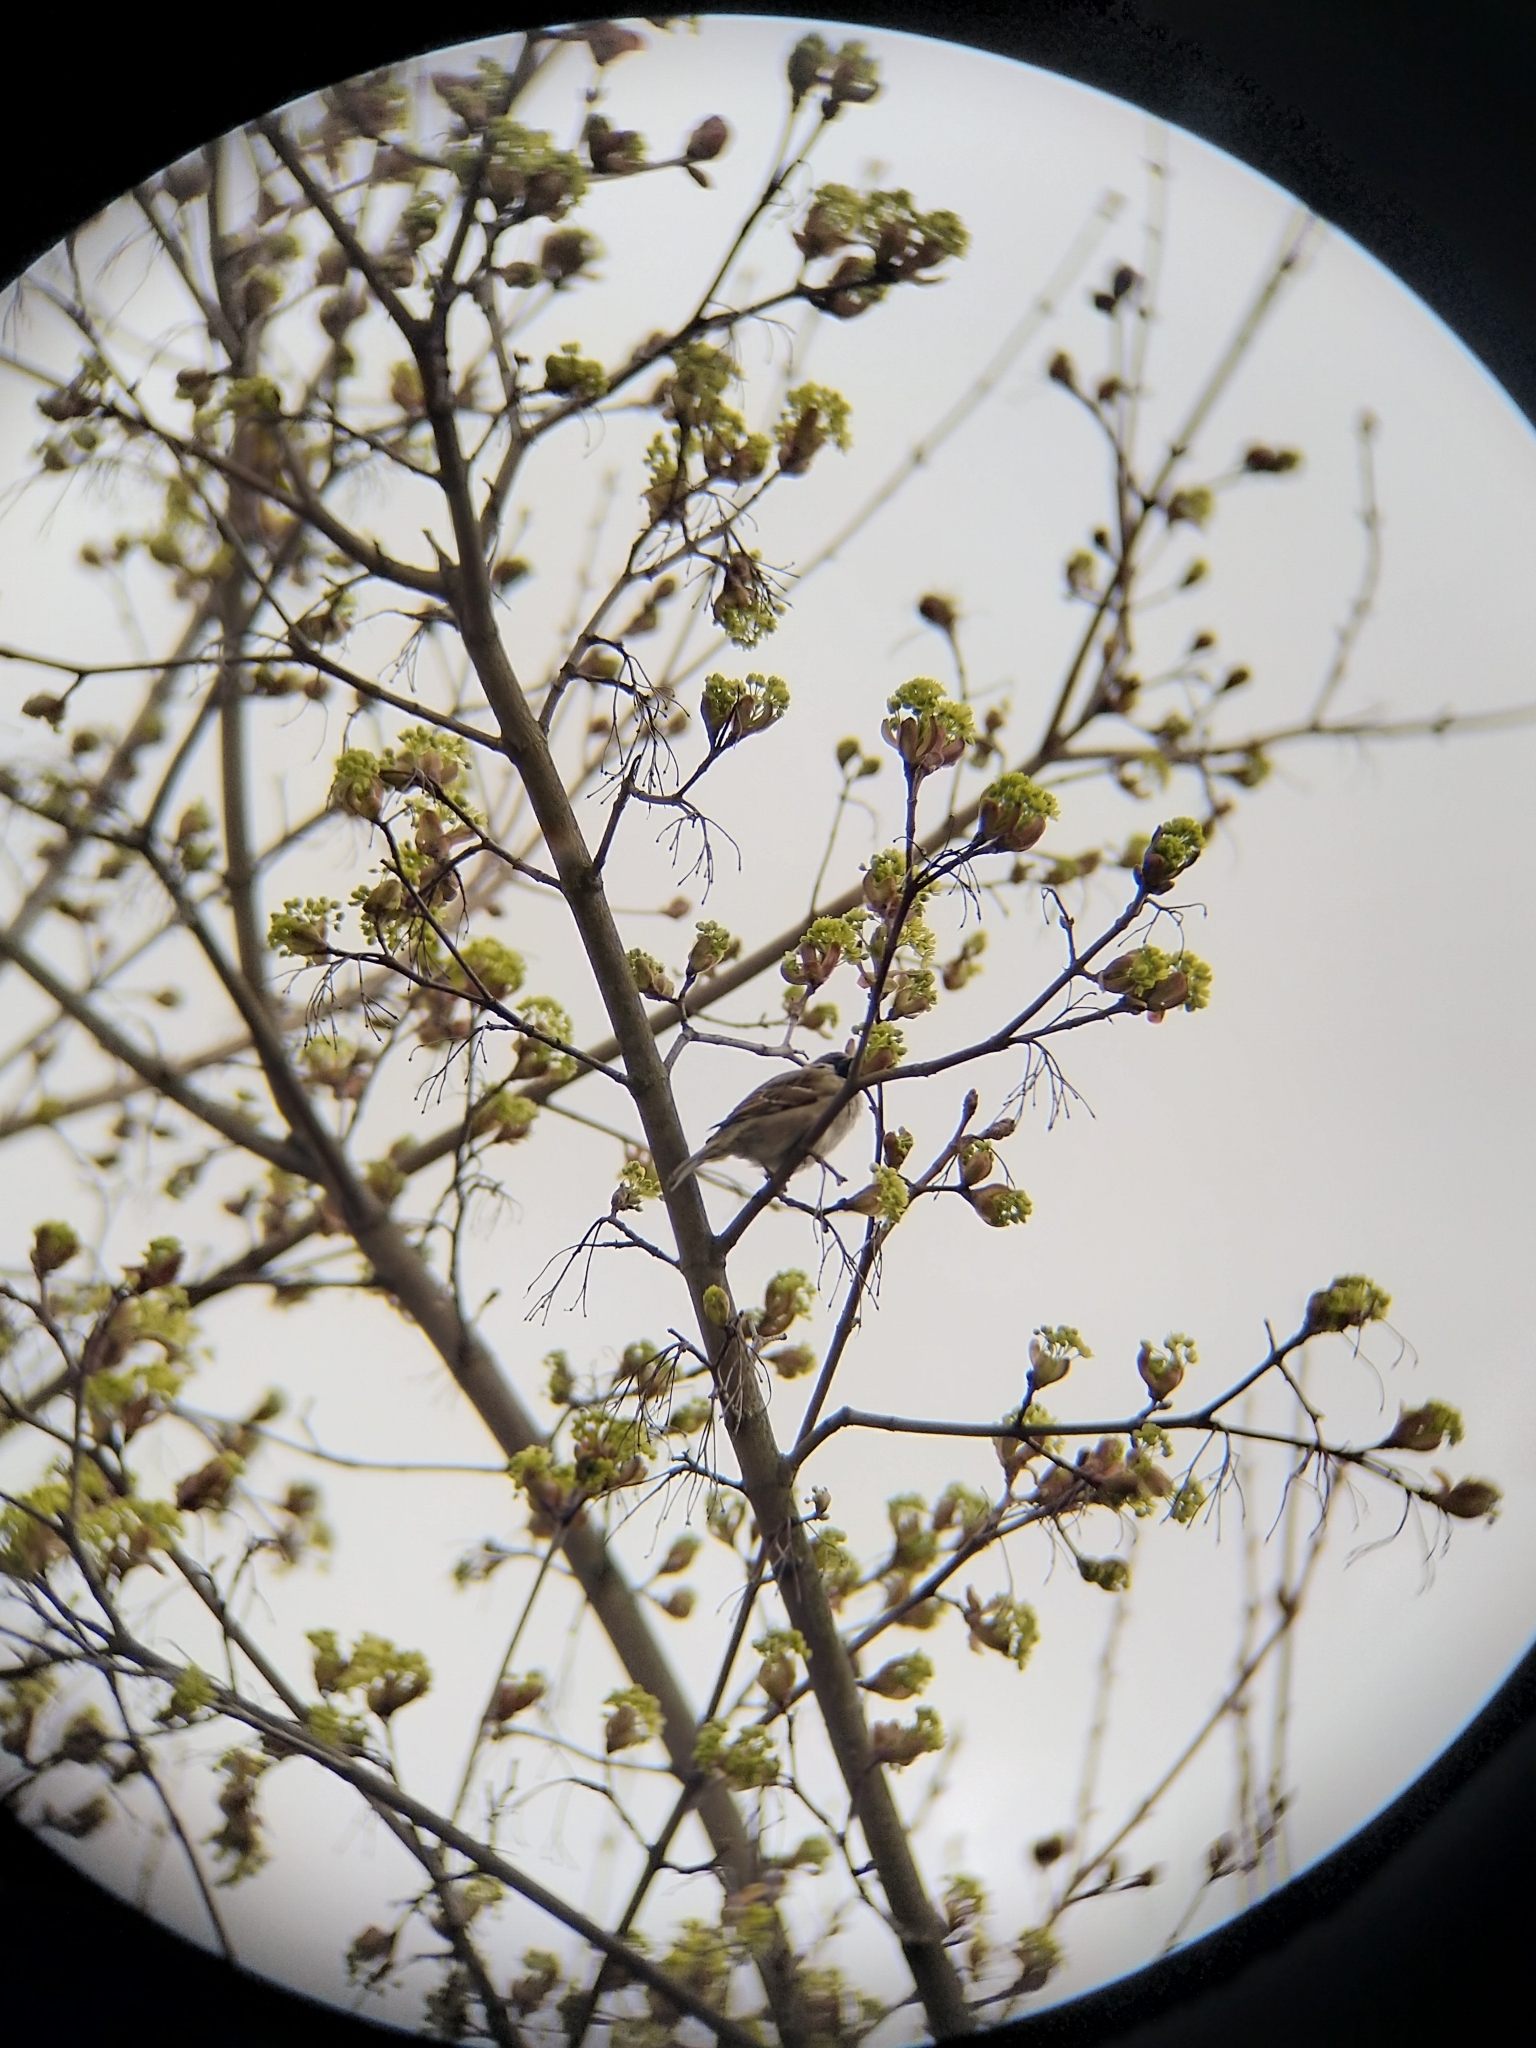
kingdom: Animalia
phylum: Chordata
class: Aves
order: Passeriformes
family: Passeridae
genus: Passer
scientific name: Passer montanus
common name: Eurasian tree sparrow
